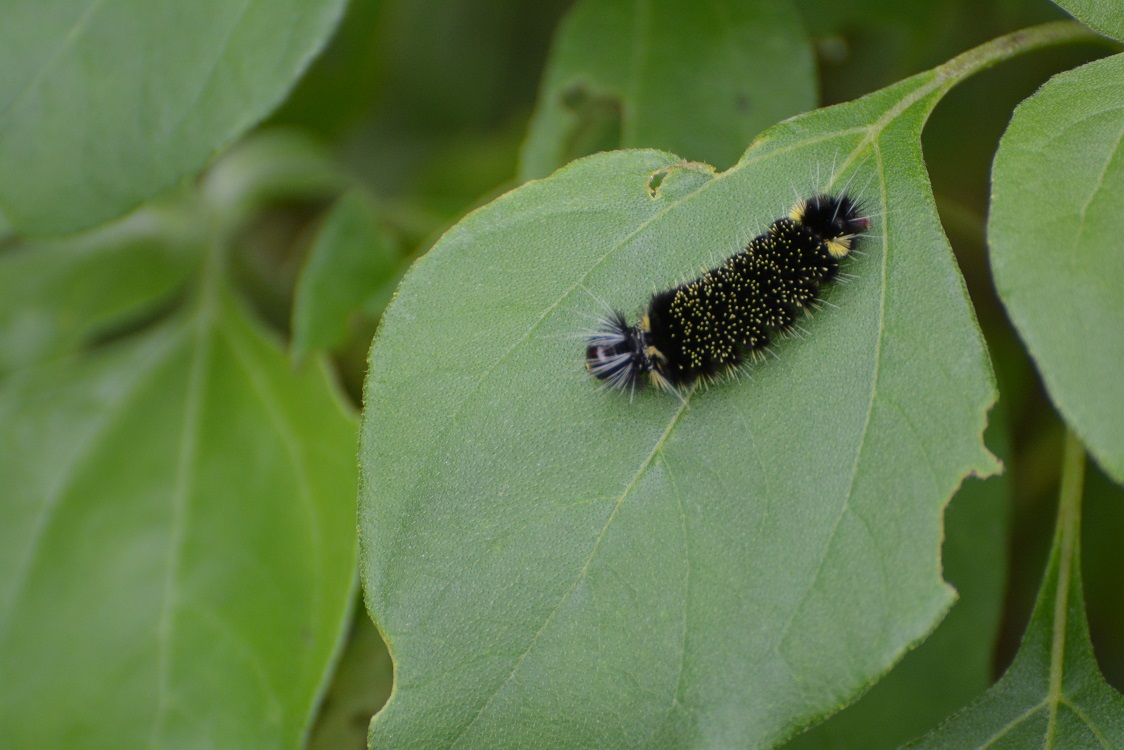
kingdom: Animalia
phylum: Arthropoda
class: Insecta
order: Lepidoptera
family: Erebidae
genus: Hypocrisias
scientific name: Hypocrisias minima
